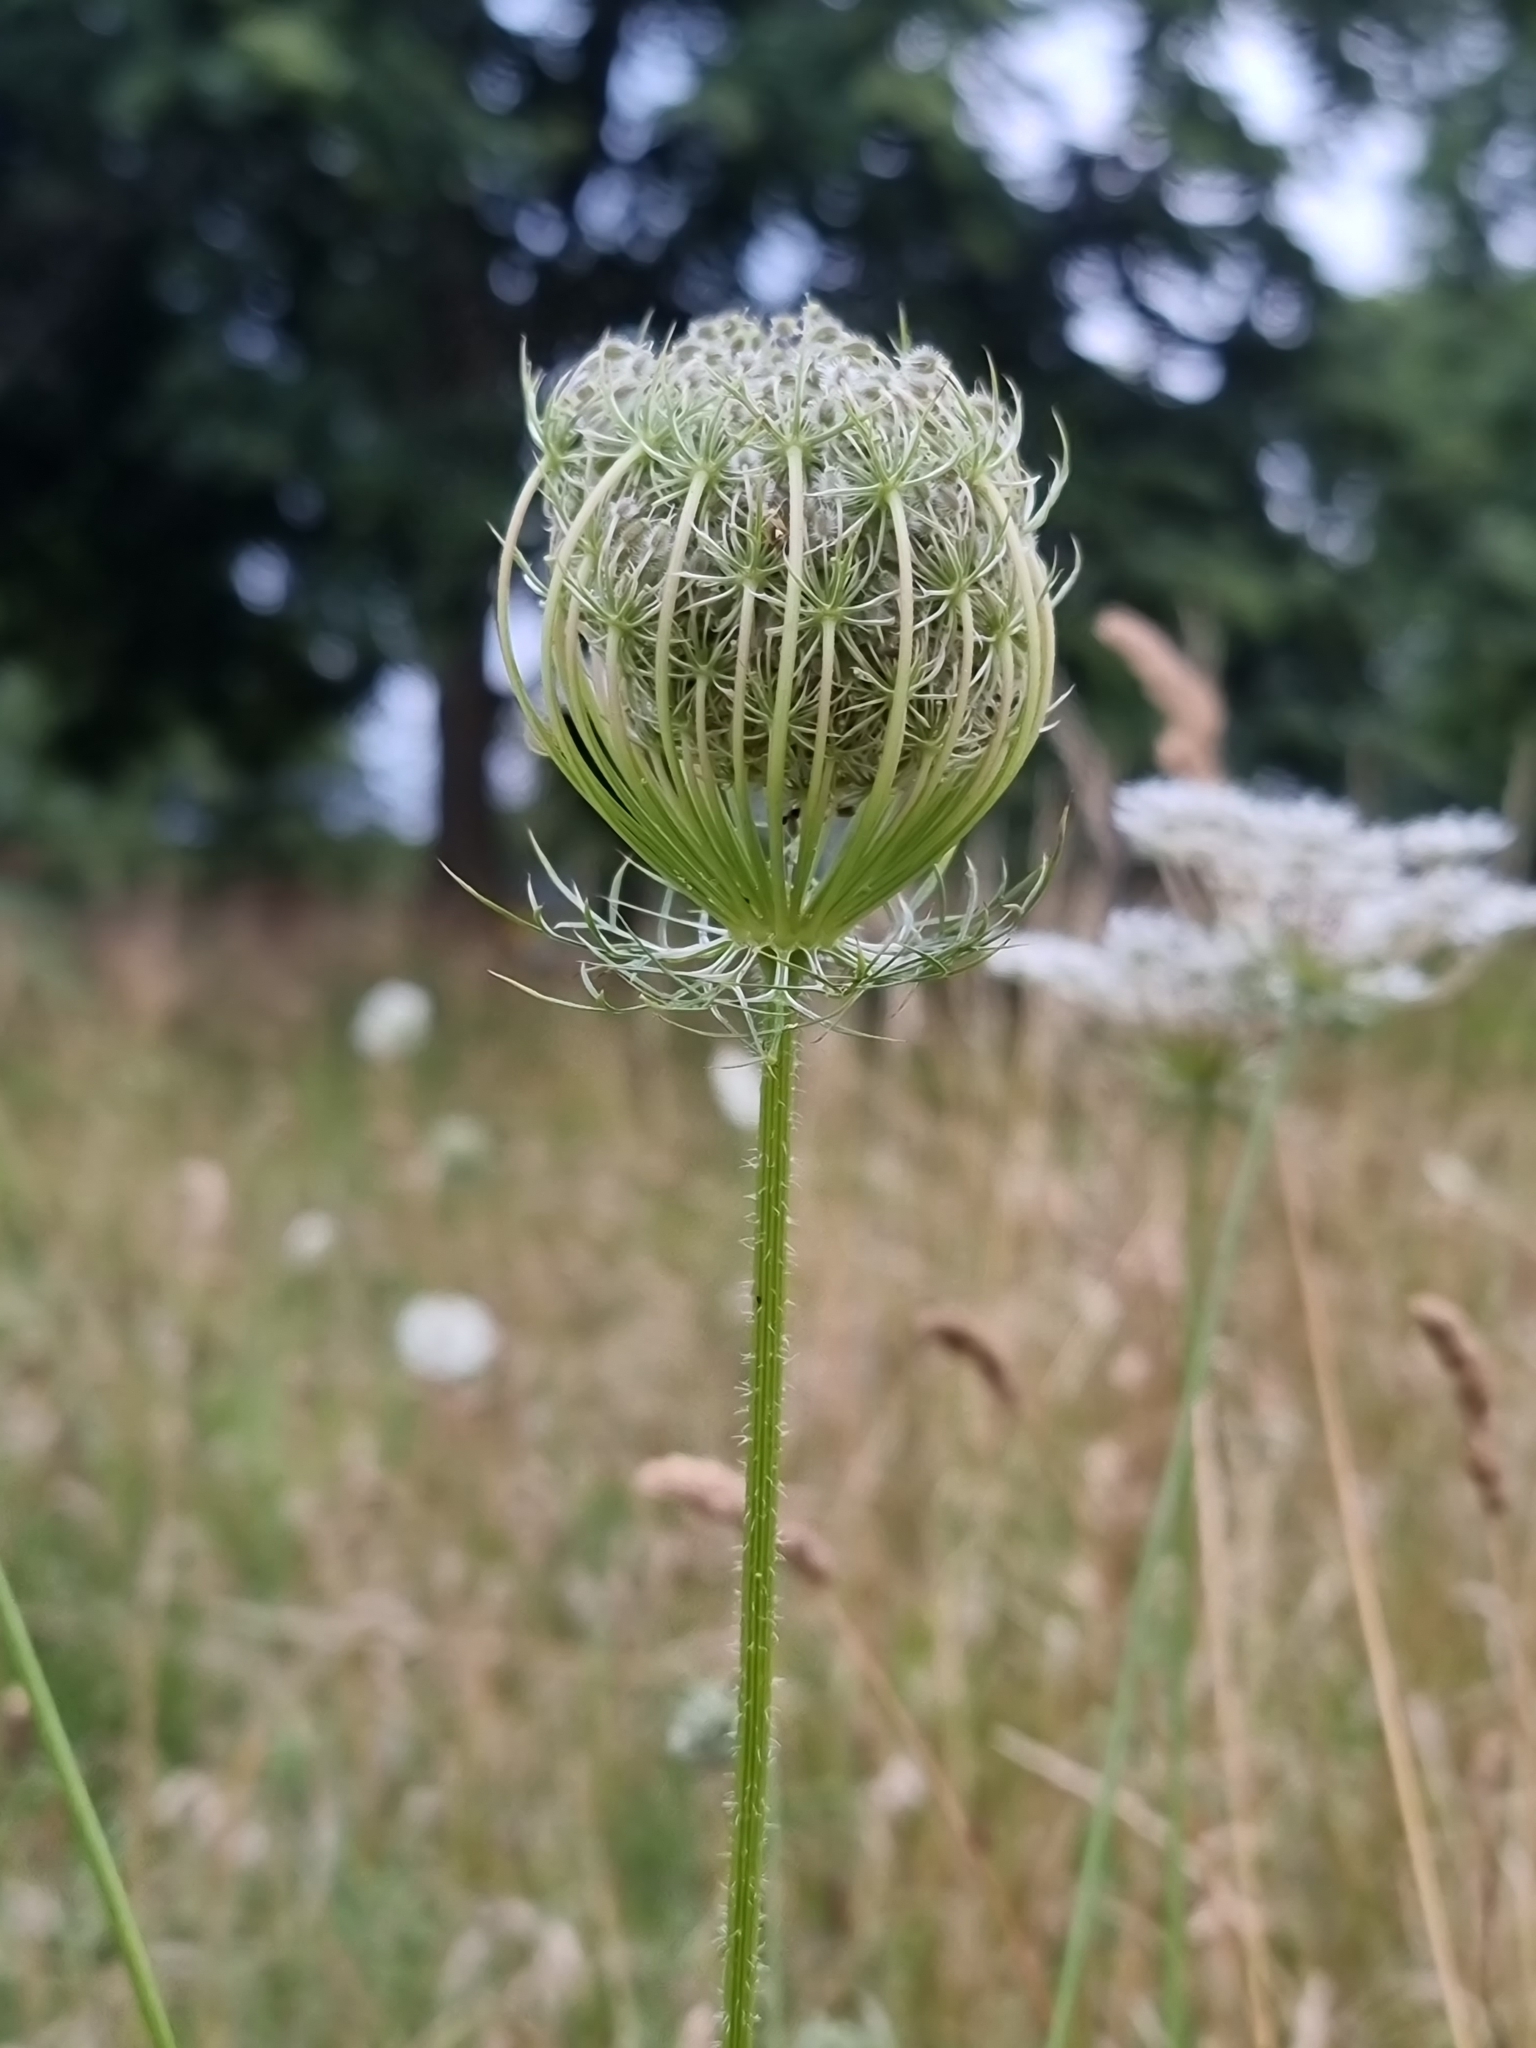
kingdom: Plantae
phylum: Tracheophyta
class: Magnoliopsida
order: Apiales
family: Apiaceae
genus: Daucus
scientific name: Daucus carota
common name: Wild carrot
